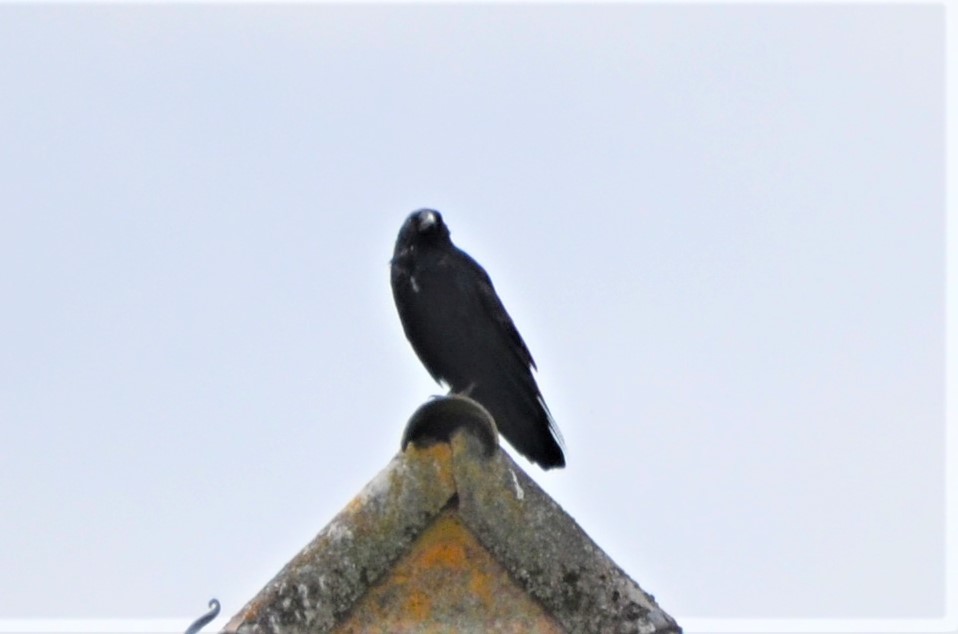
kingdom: Animalia
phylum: Chordata
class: Aves
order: Passeriformes
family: Corvidae
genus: Corvus
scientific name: Corvus corone
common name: Carrion crow
